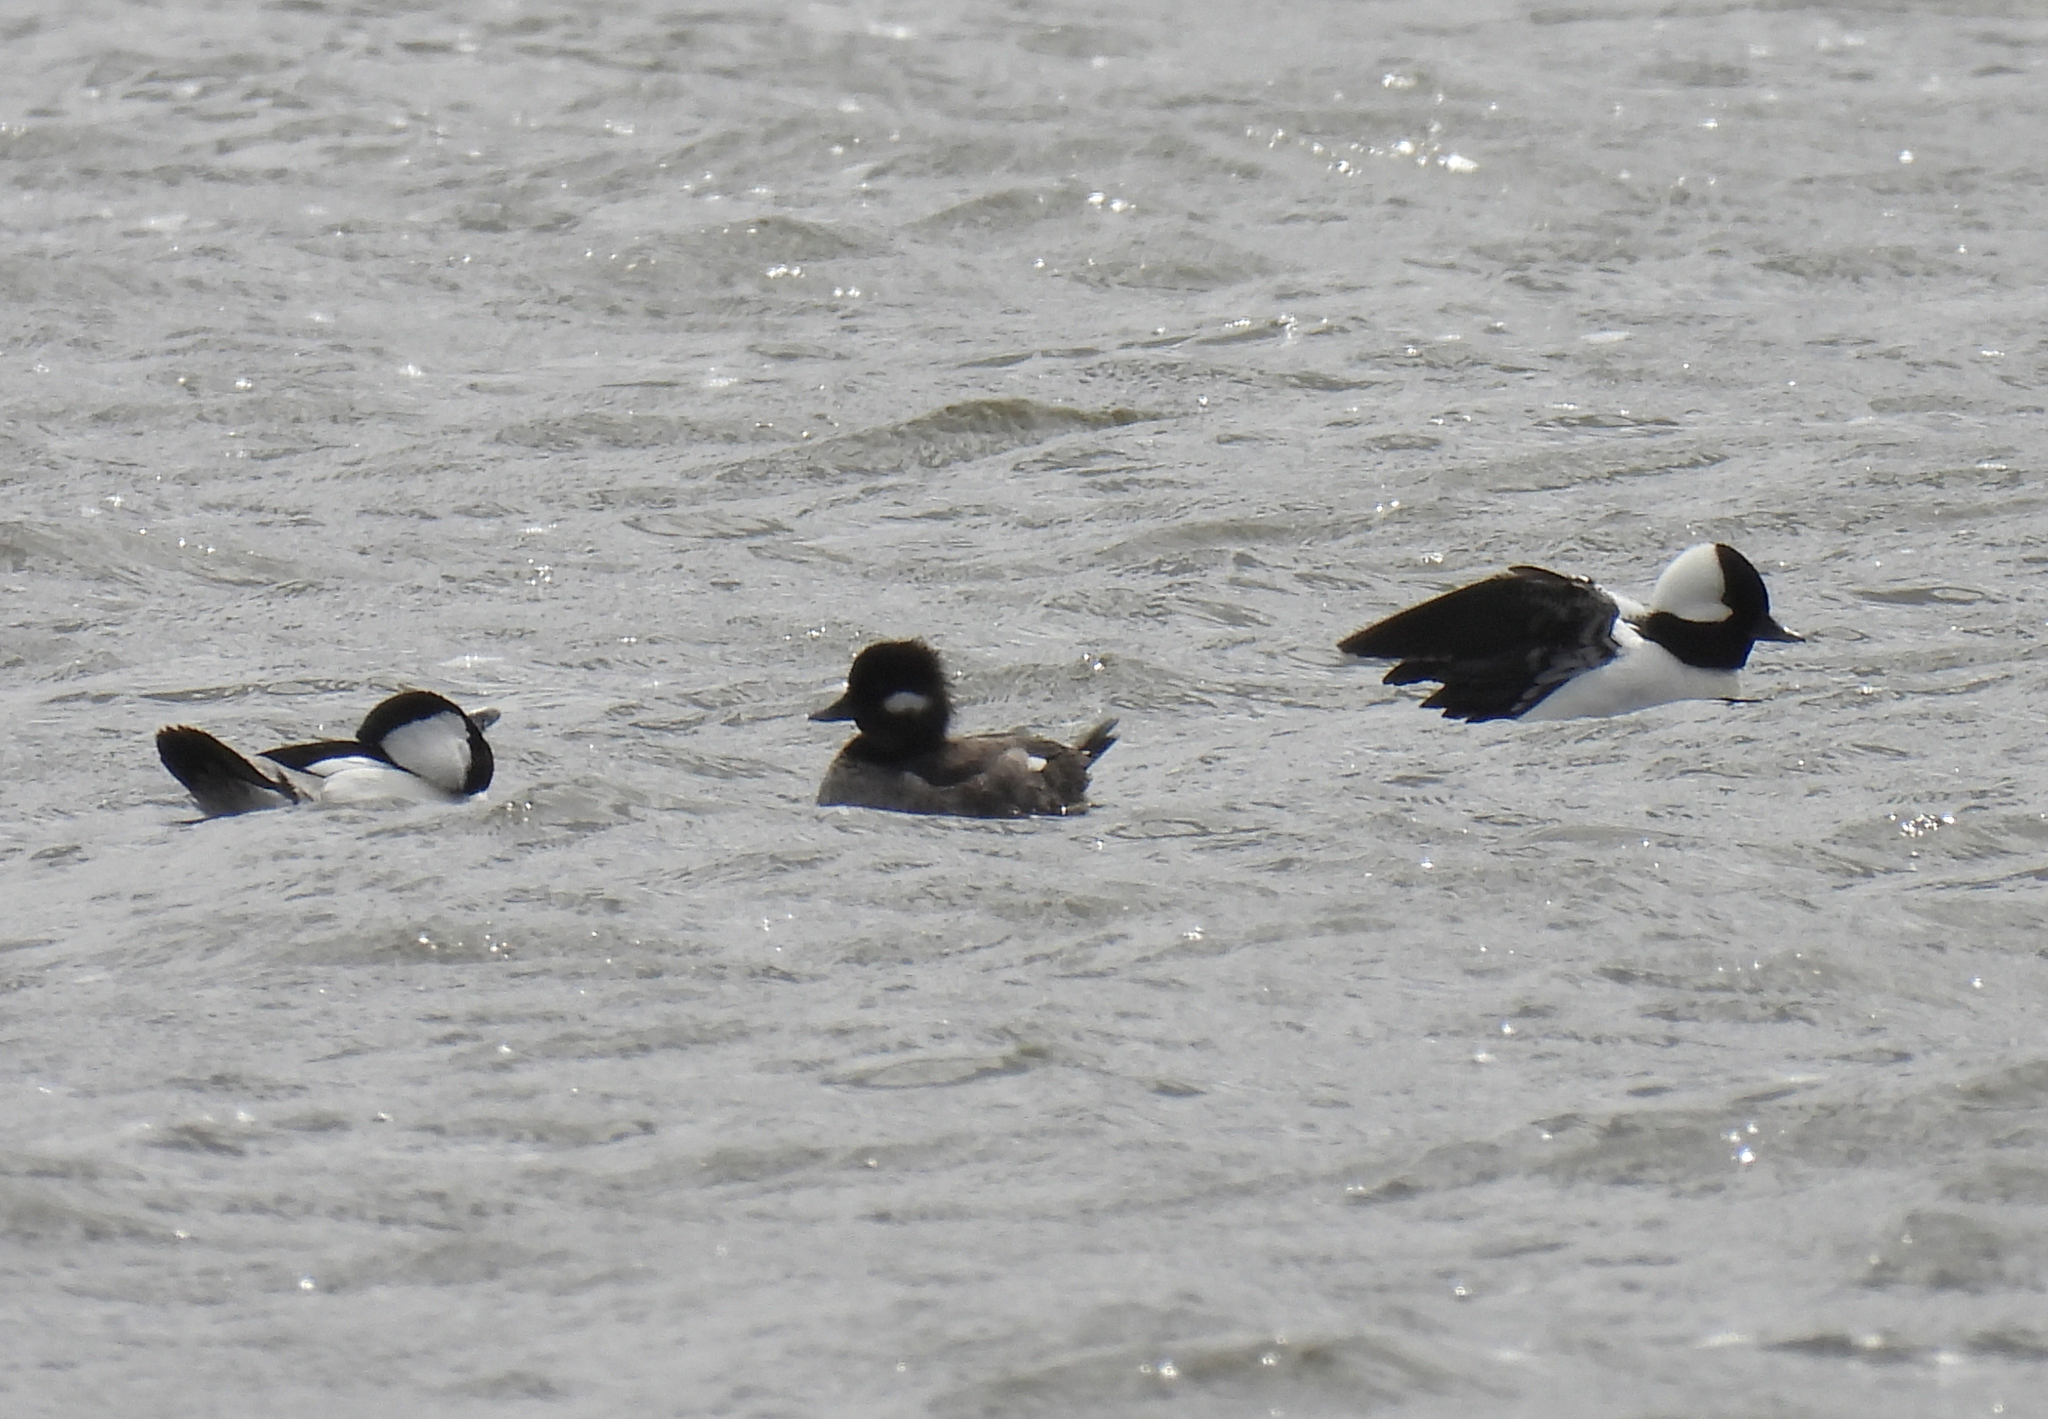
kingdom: Animalia
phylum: Chordata
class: Aves
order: Anseriformes
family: Anatidae
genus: Bucephala
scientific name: Bucephala albeola
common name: Bufflehead
